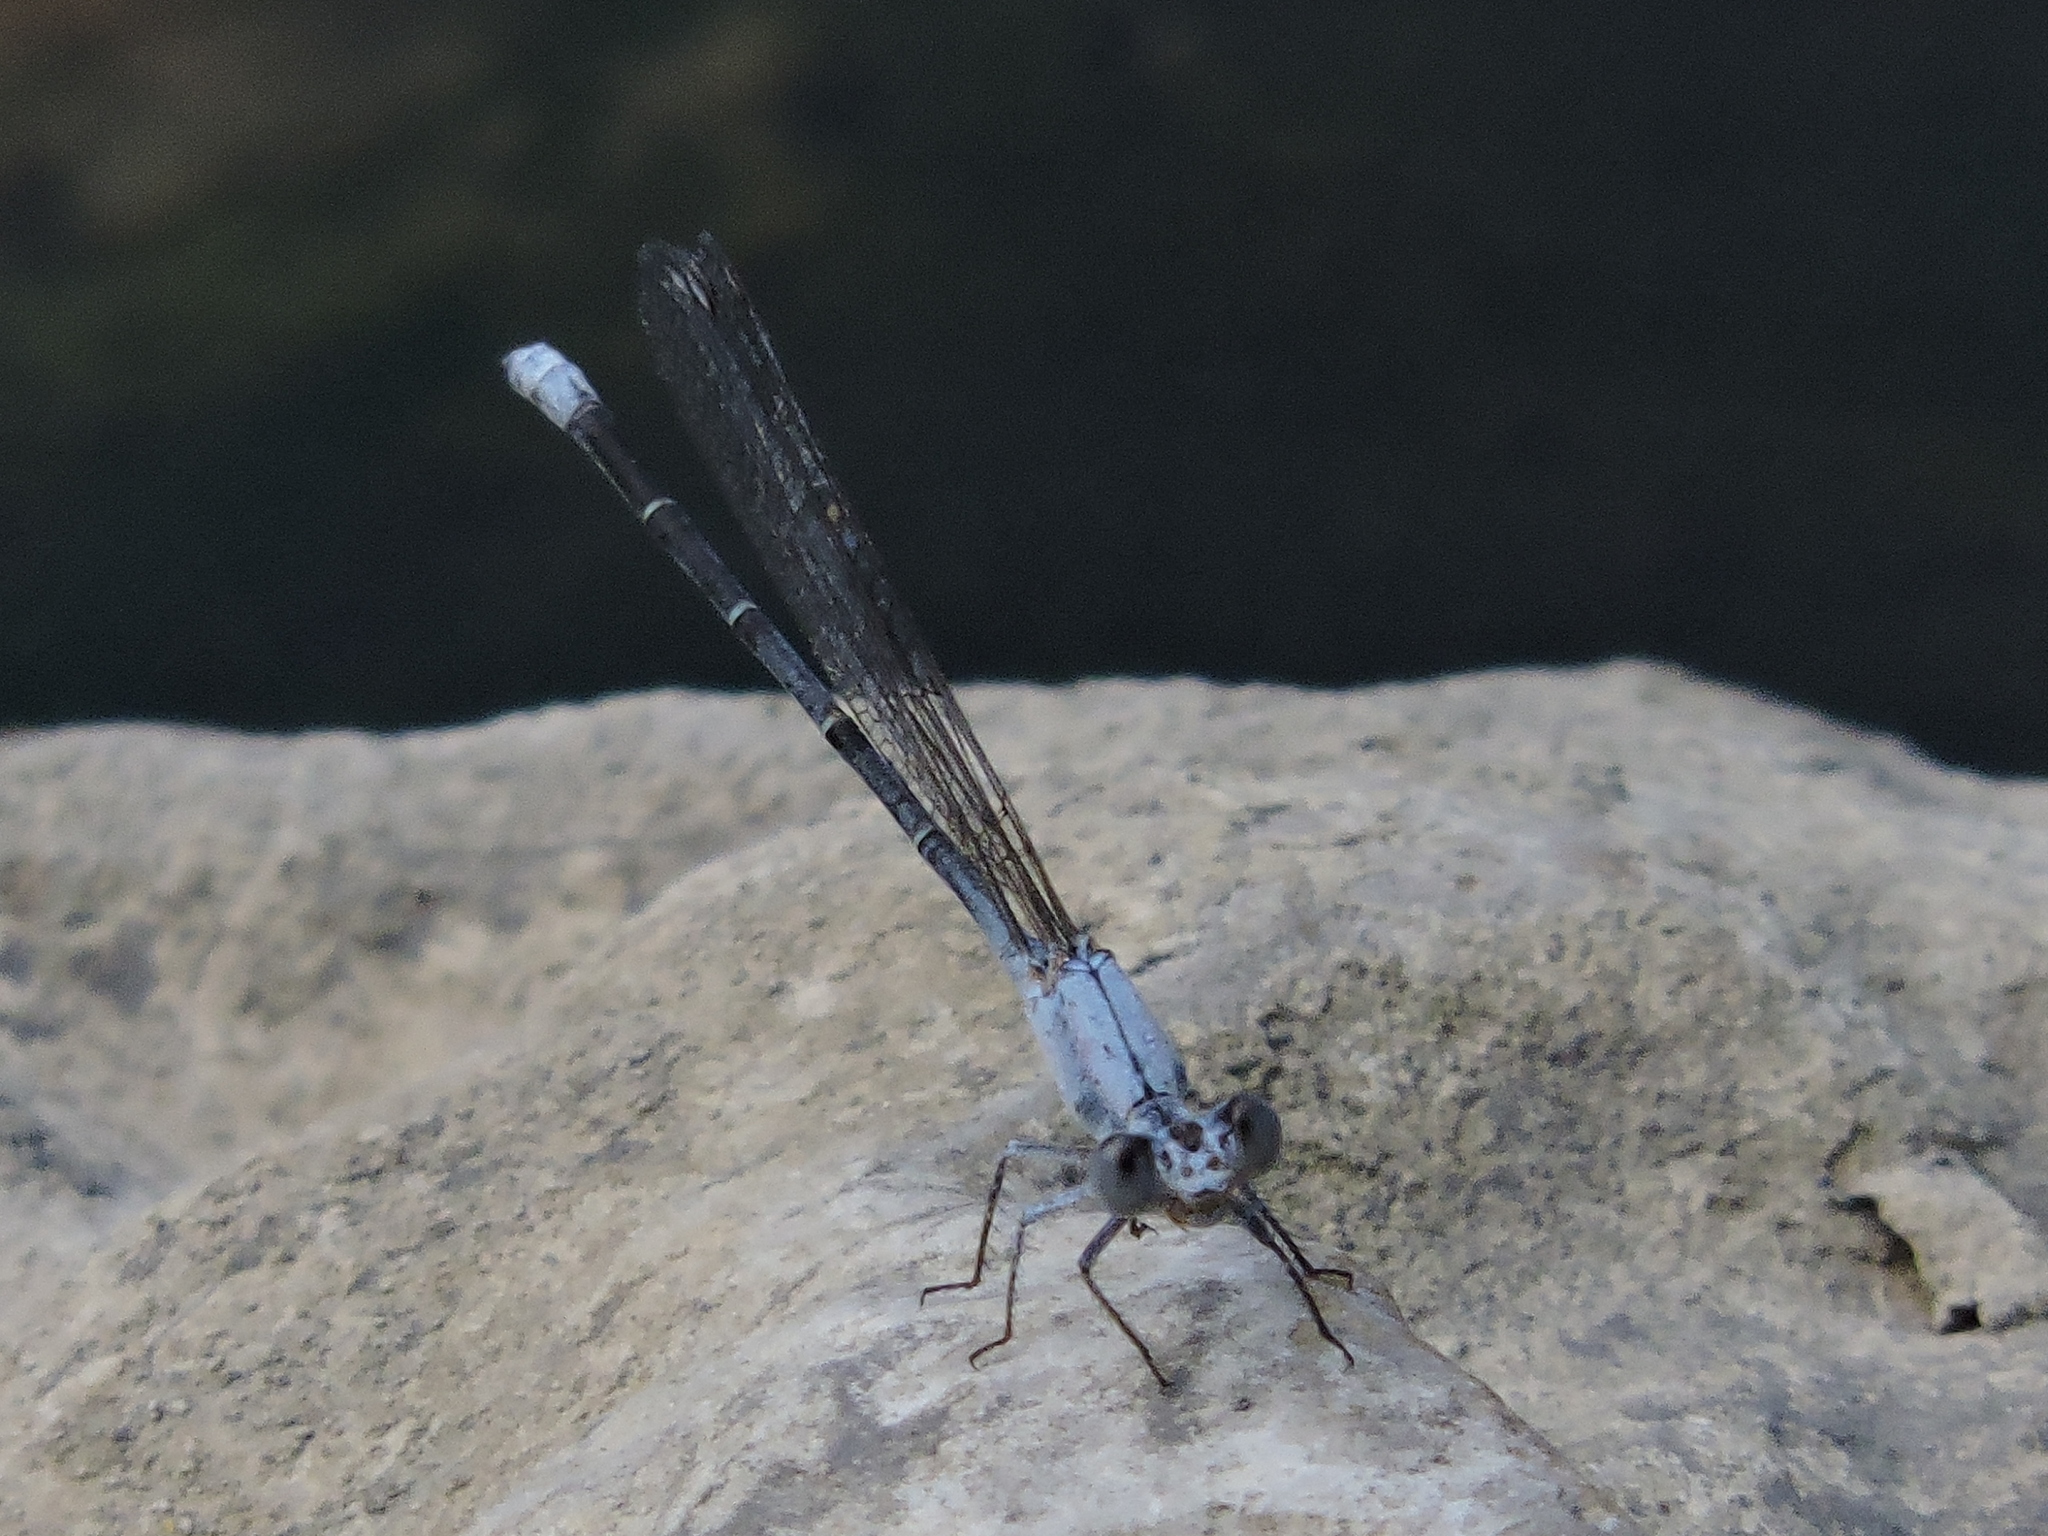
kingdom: Animalia
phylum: Arthropoda
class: Insecta
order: Odonata
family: Coenagrionidae
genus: Argia
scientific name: Argia moesta
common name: Powdered dancer
